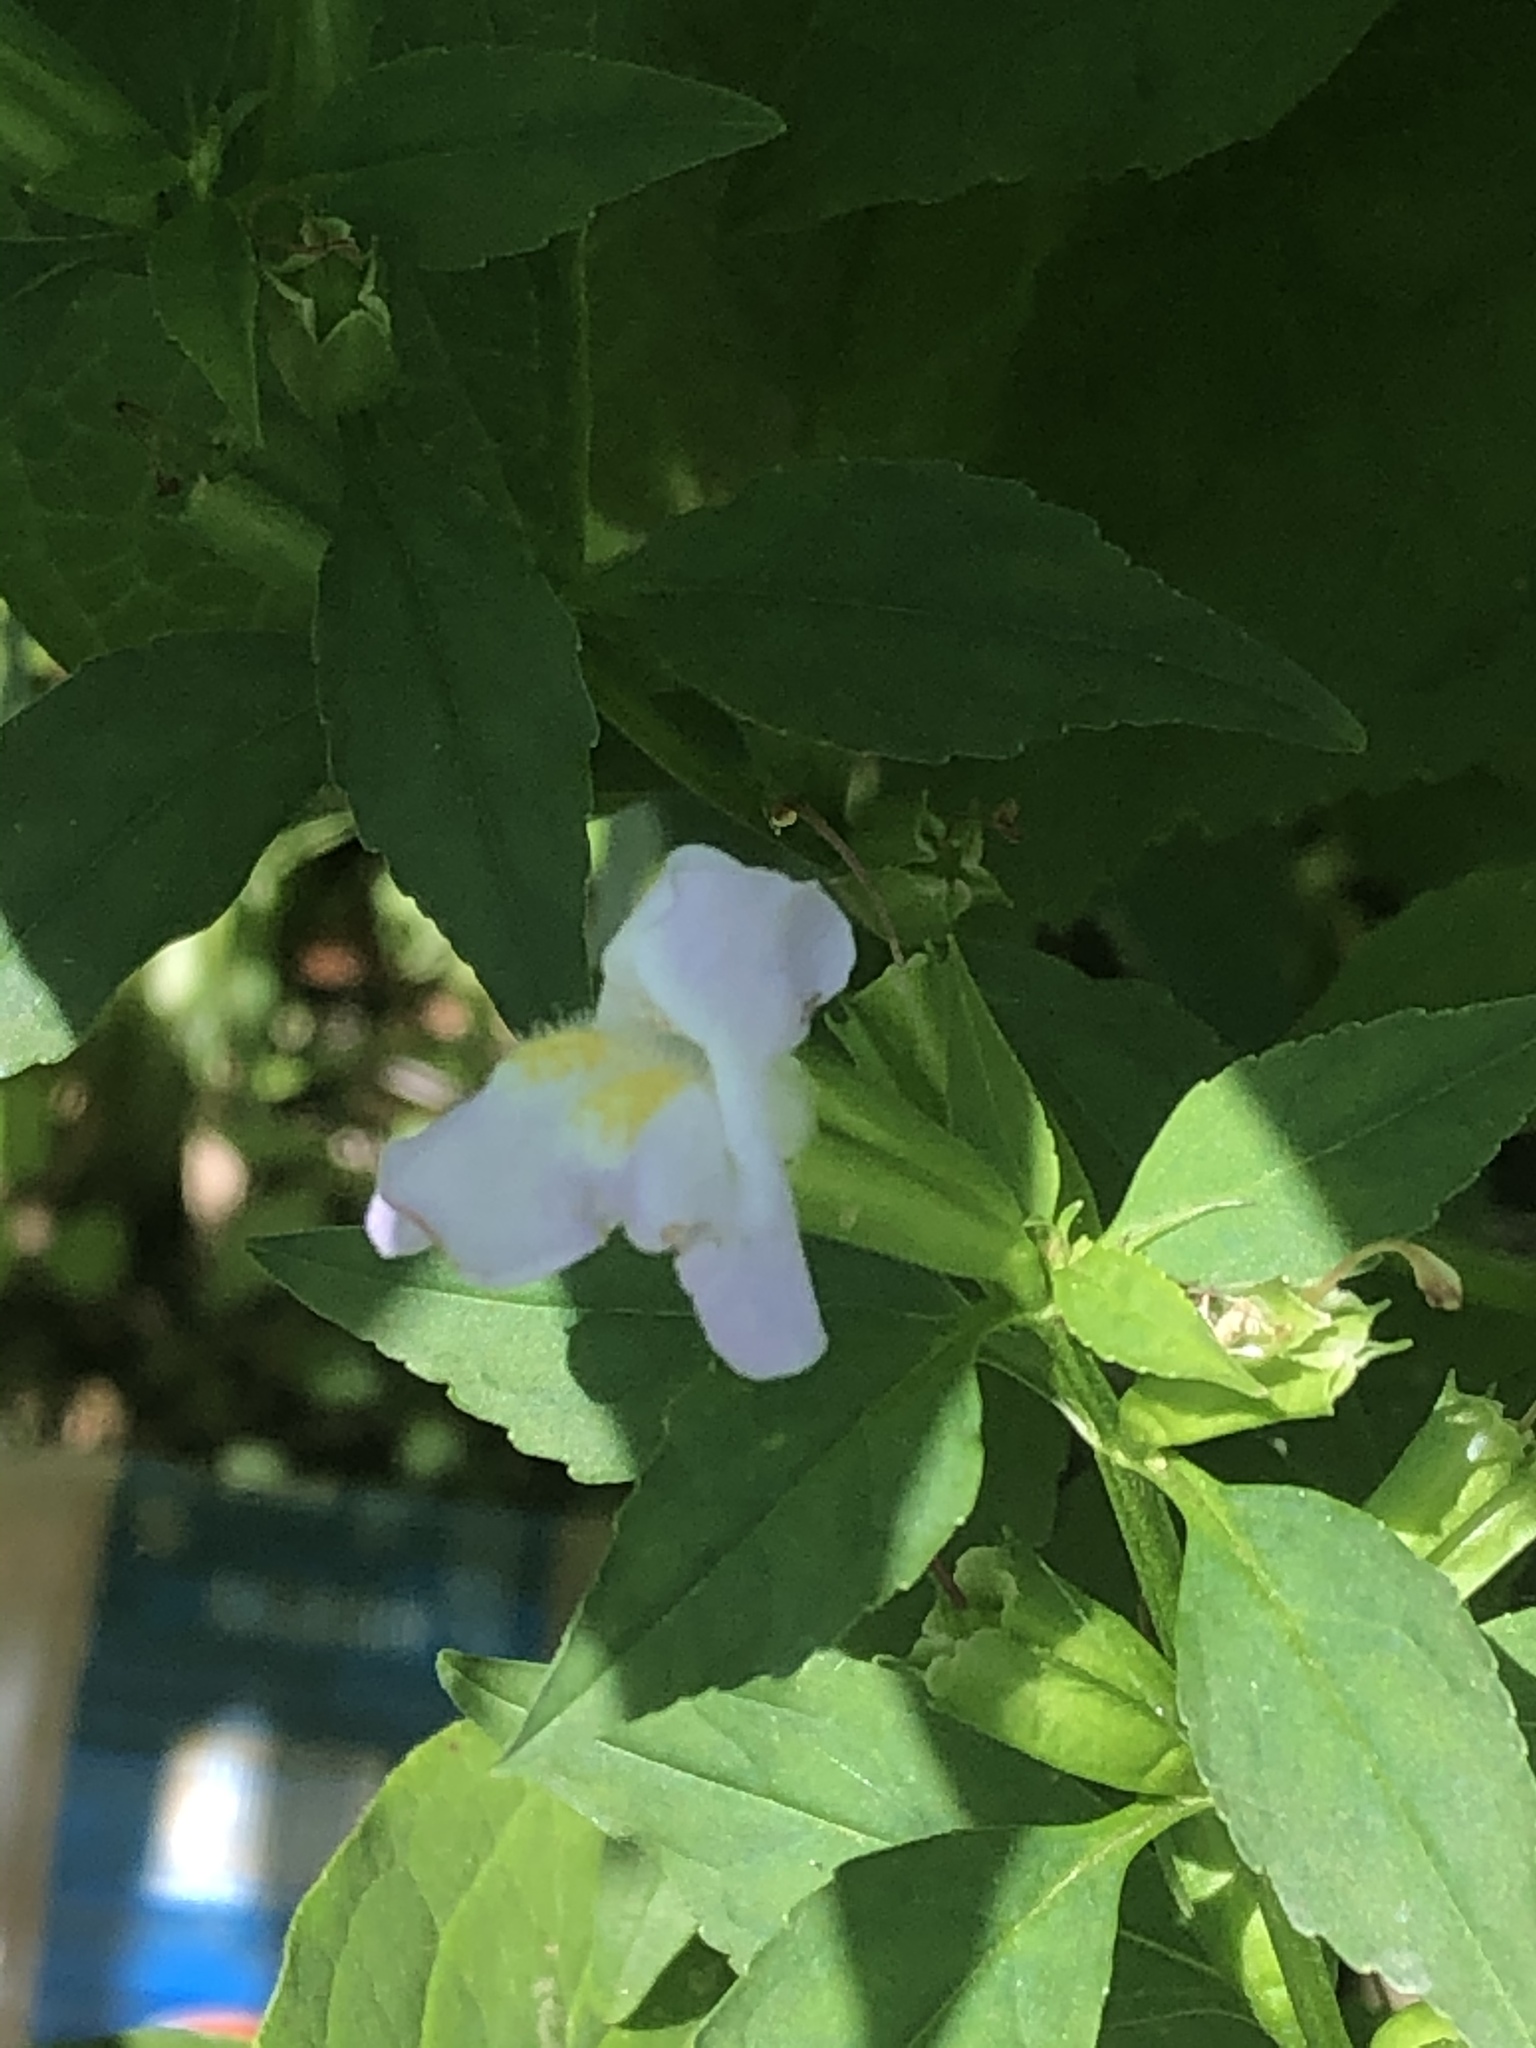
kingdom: Plantae
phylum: Tracheophyta
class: Magnoliopsida
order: Lamiales
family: Phrymaceae
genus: Mimulus
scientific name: Mimulus alatus
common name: Sharp-wing monkey-flower
